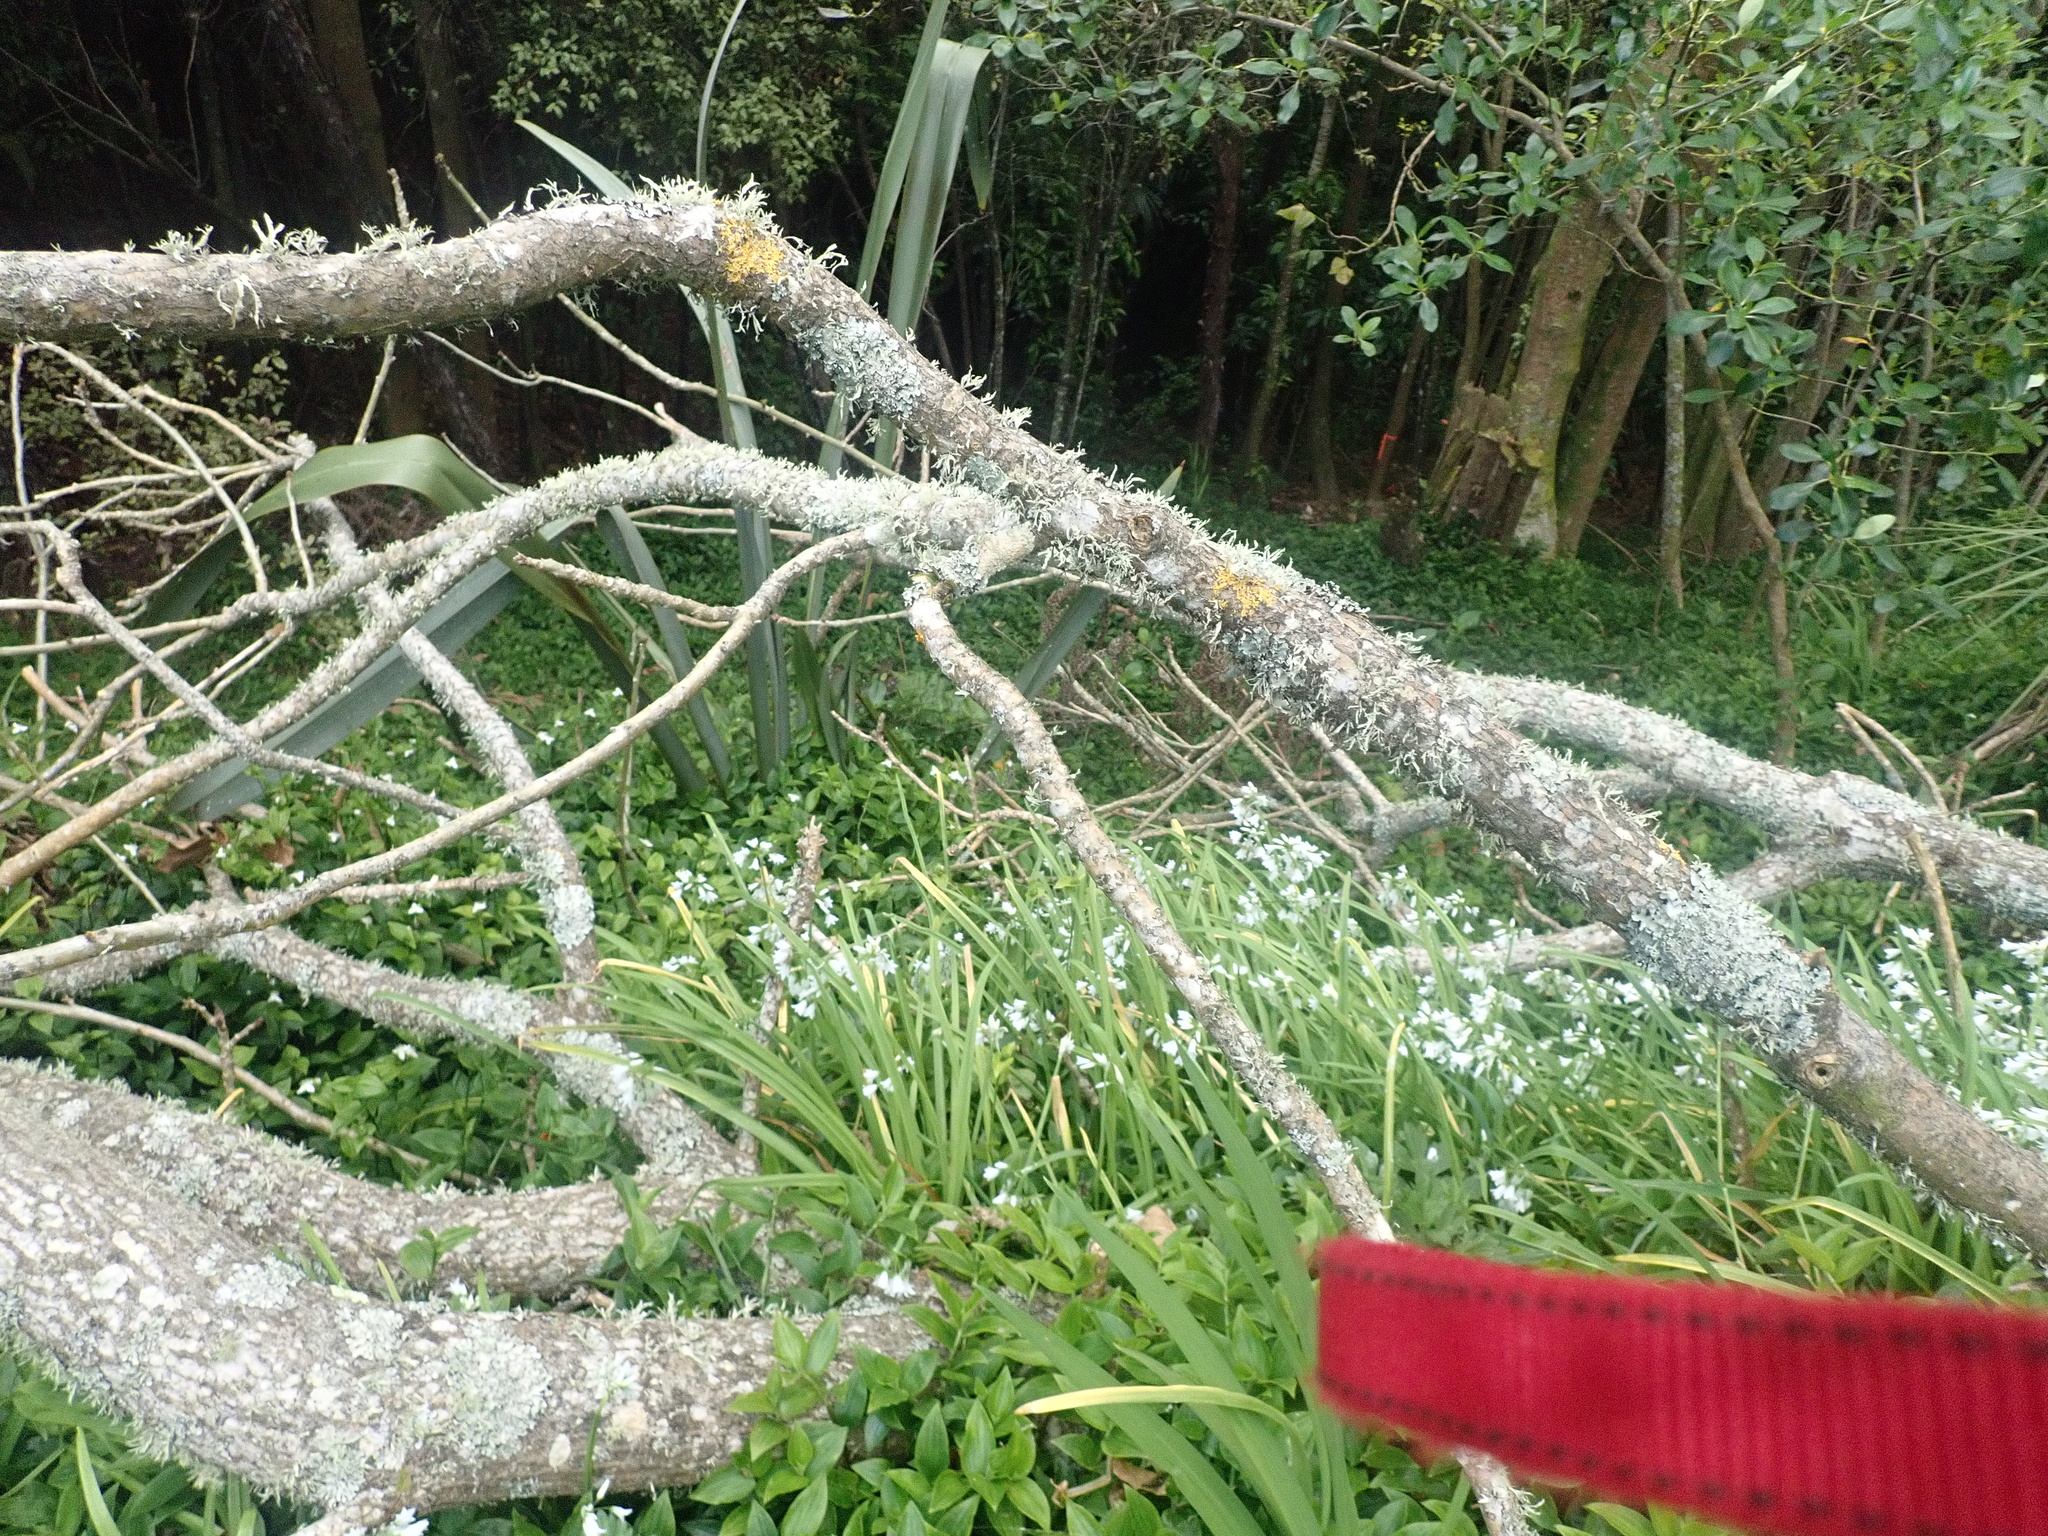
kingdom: Plantae
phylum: Tracheophyta
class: Liliopsida
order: Asparagales
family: Amaryllidaceae
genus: Allium
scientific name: Allium triquetrum
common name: Three-cornered garlic
